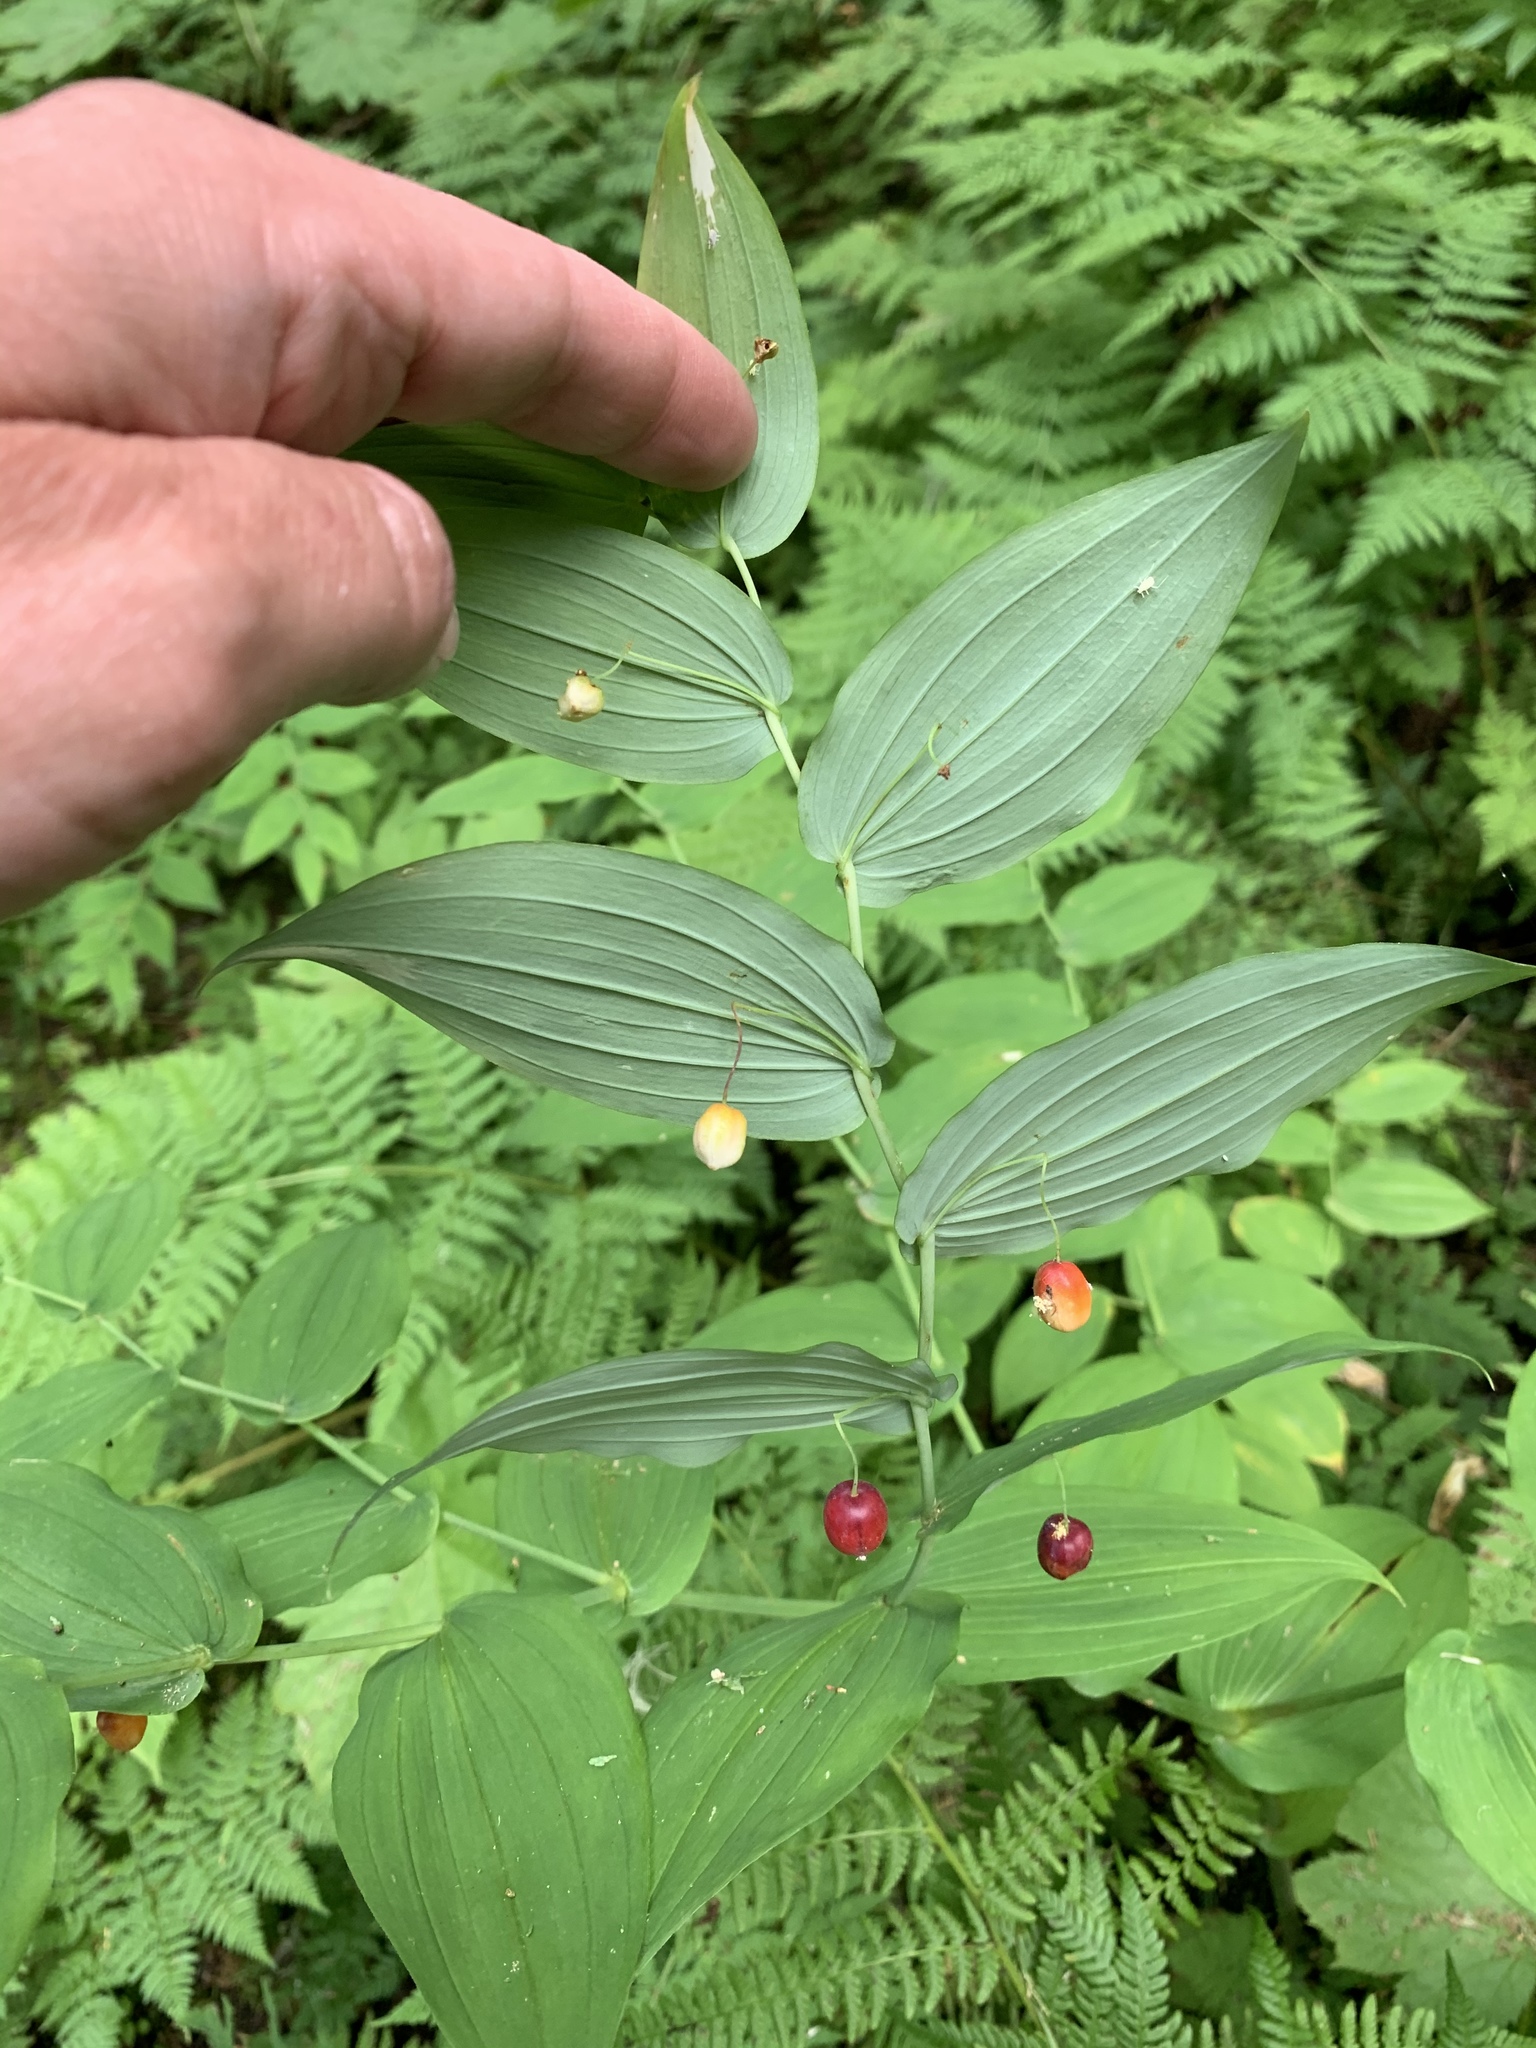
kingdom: Plantae
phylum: Tracheophyta
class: Liliopsida
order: Liliales
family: Liliaceae
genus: Streptopus
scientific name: Streptopus amplexifolius
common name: Clasp twisted stalk
